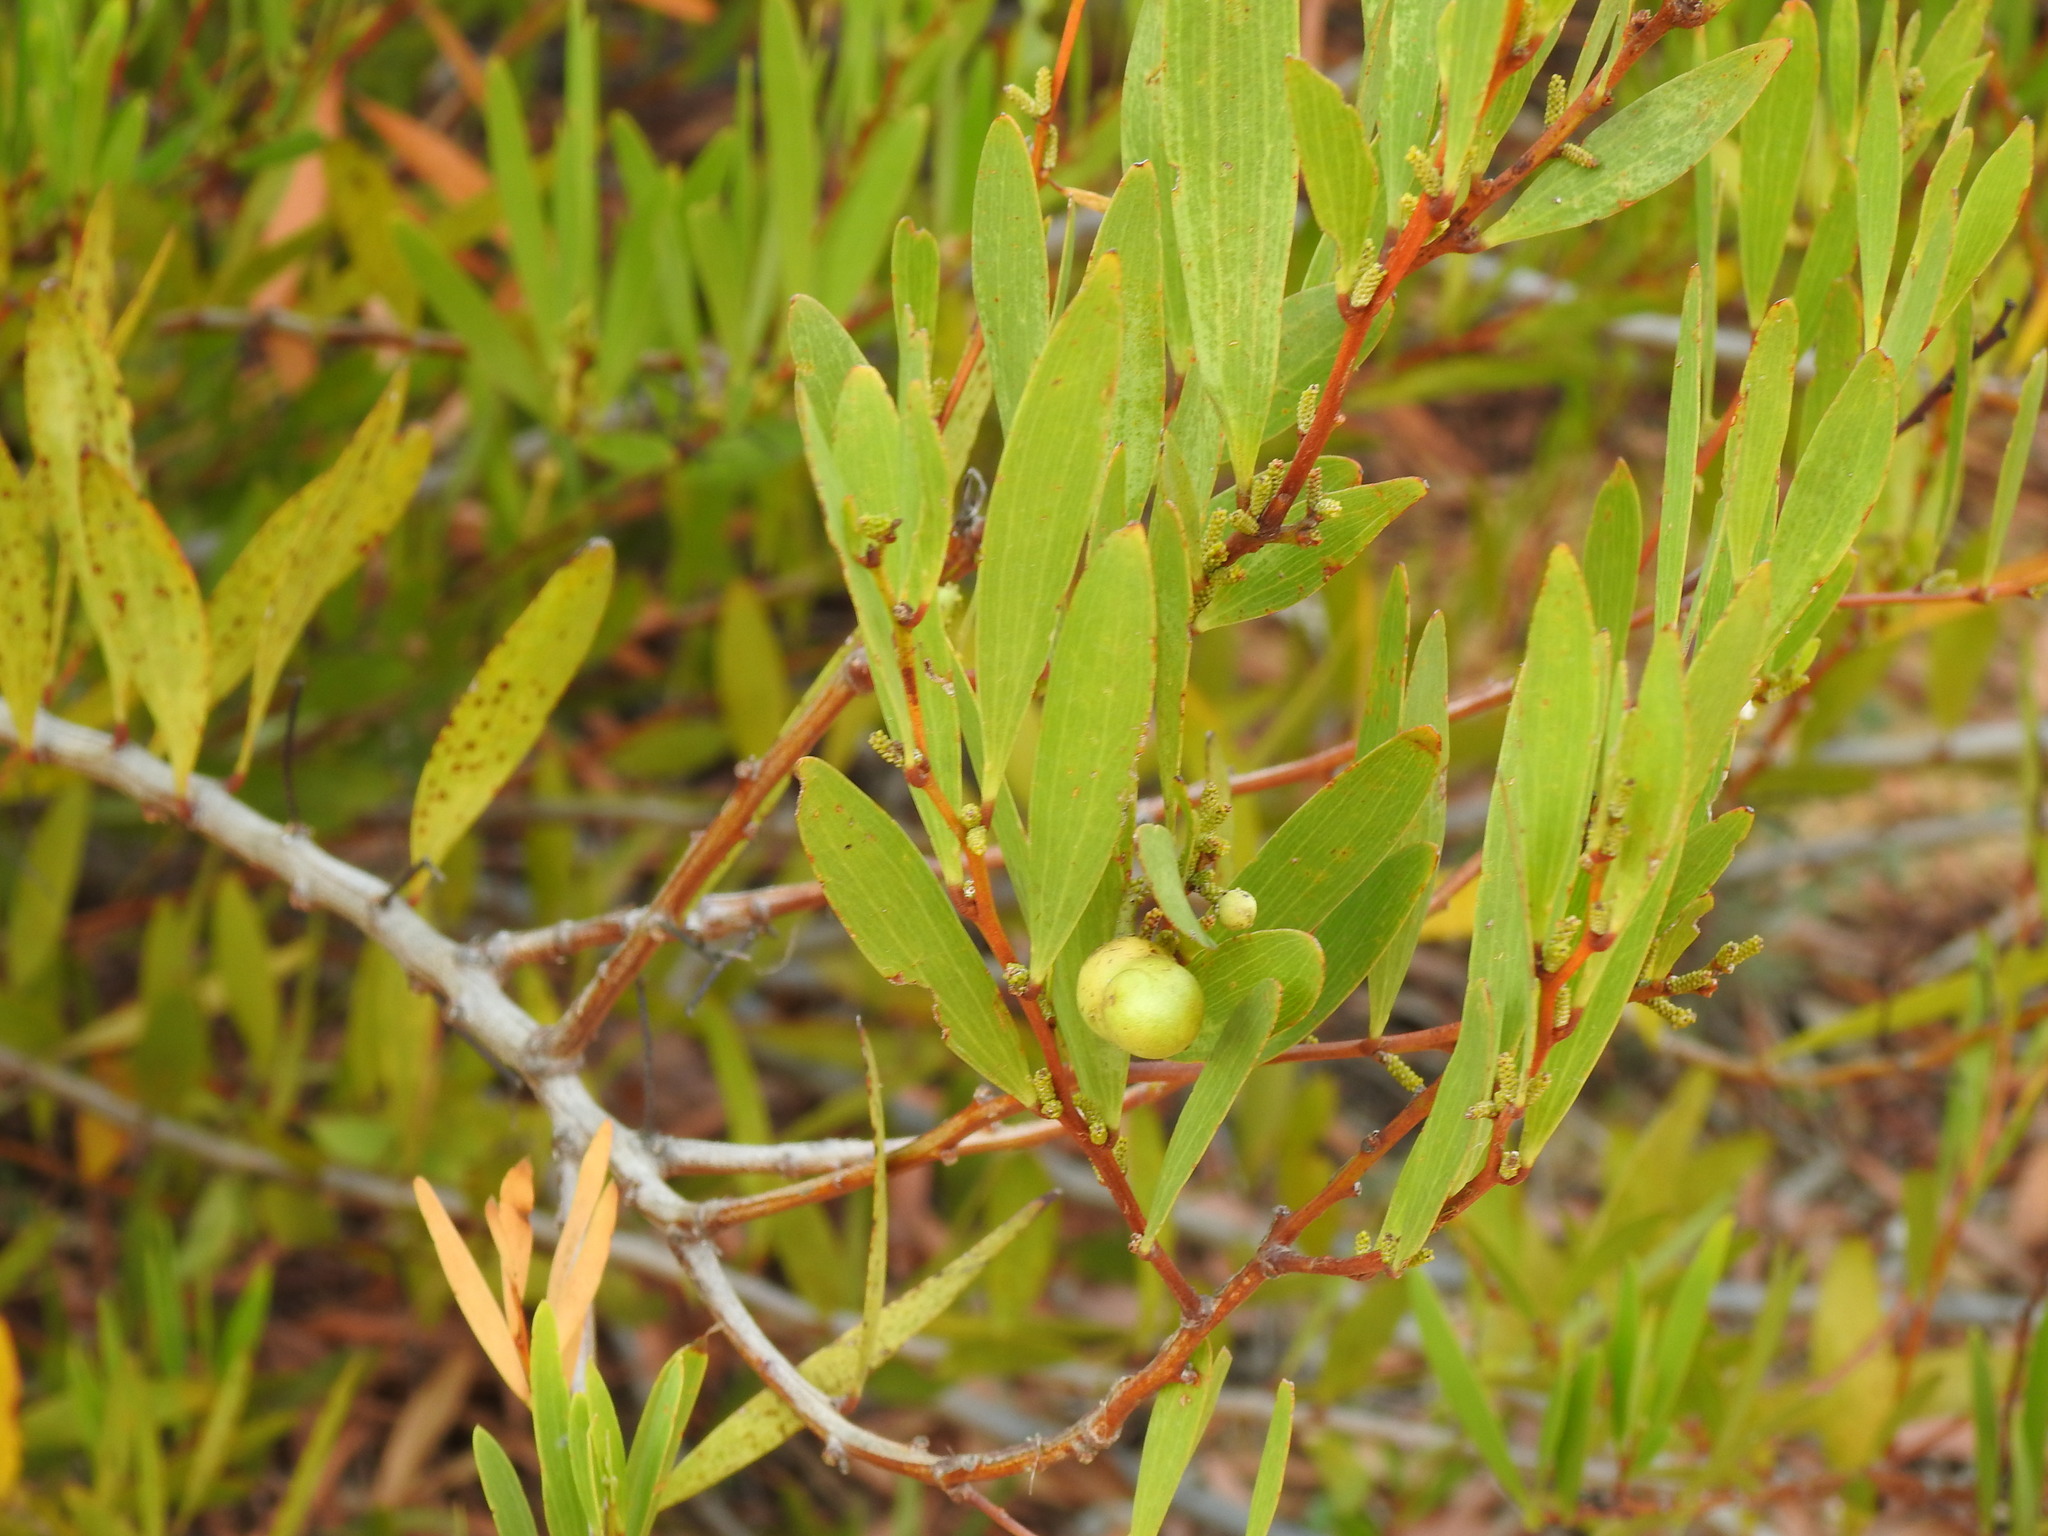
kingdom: Plantae
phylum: Tracheophyta
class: Magnoliopsida
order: Fabales
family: Fabaceae
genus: Acacia
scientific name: Acacia longifolia
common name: Sydney golden wattle
